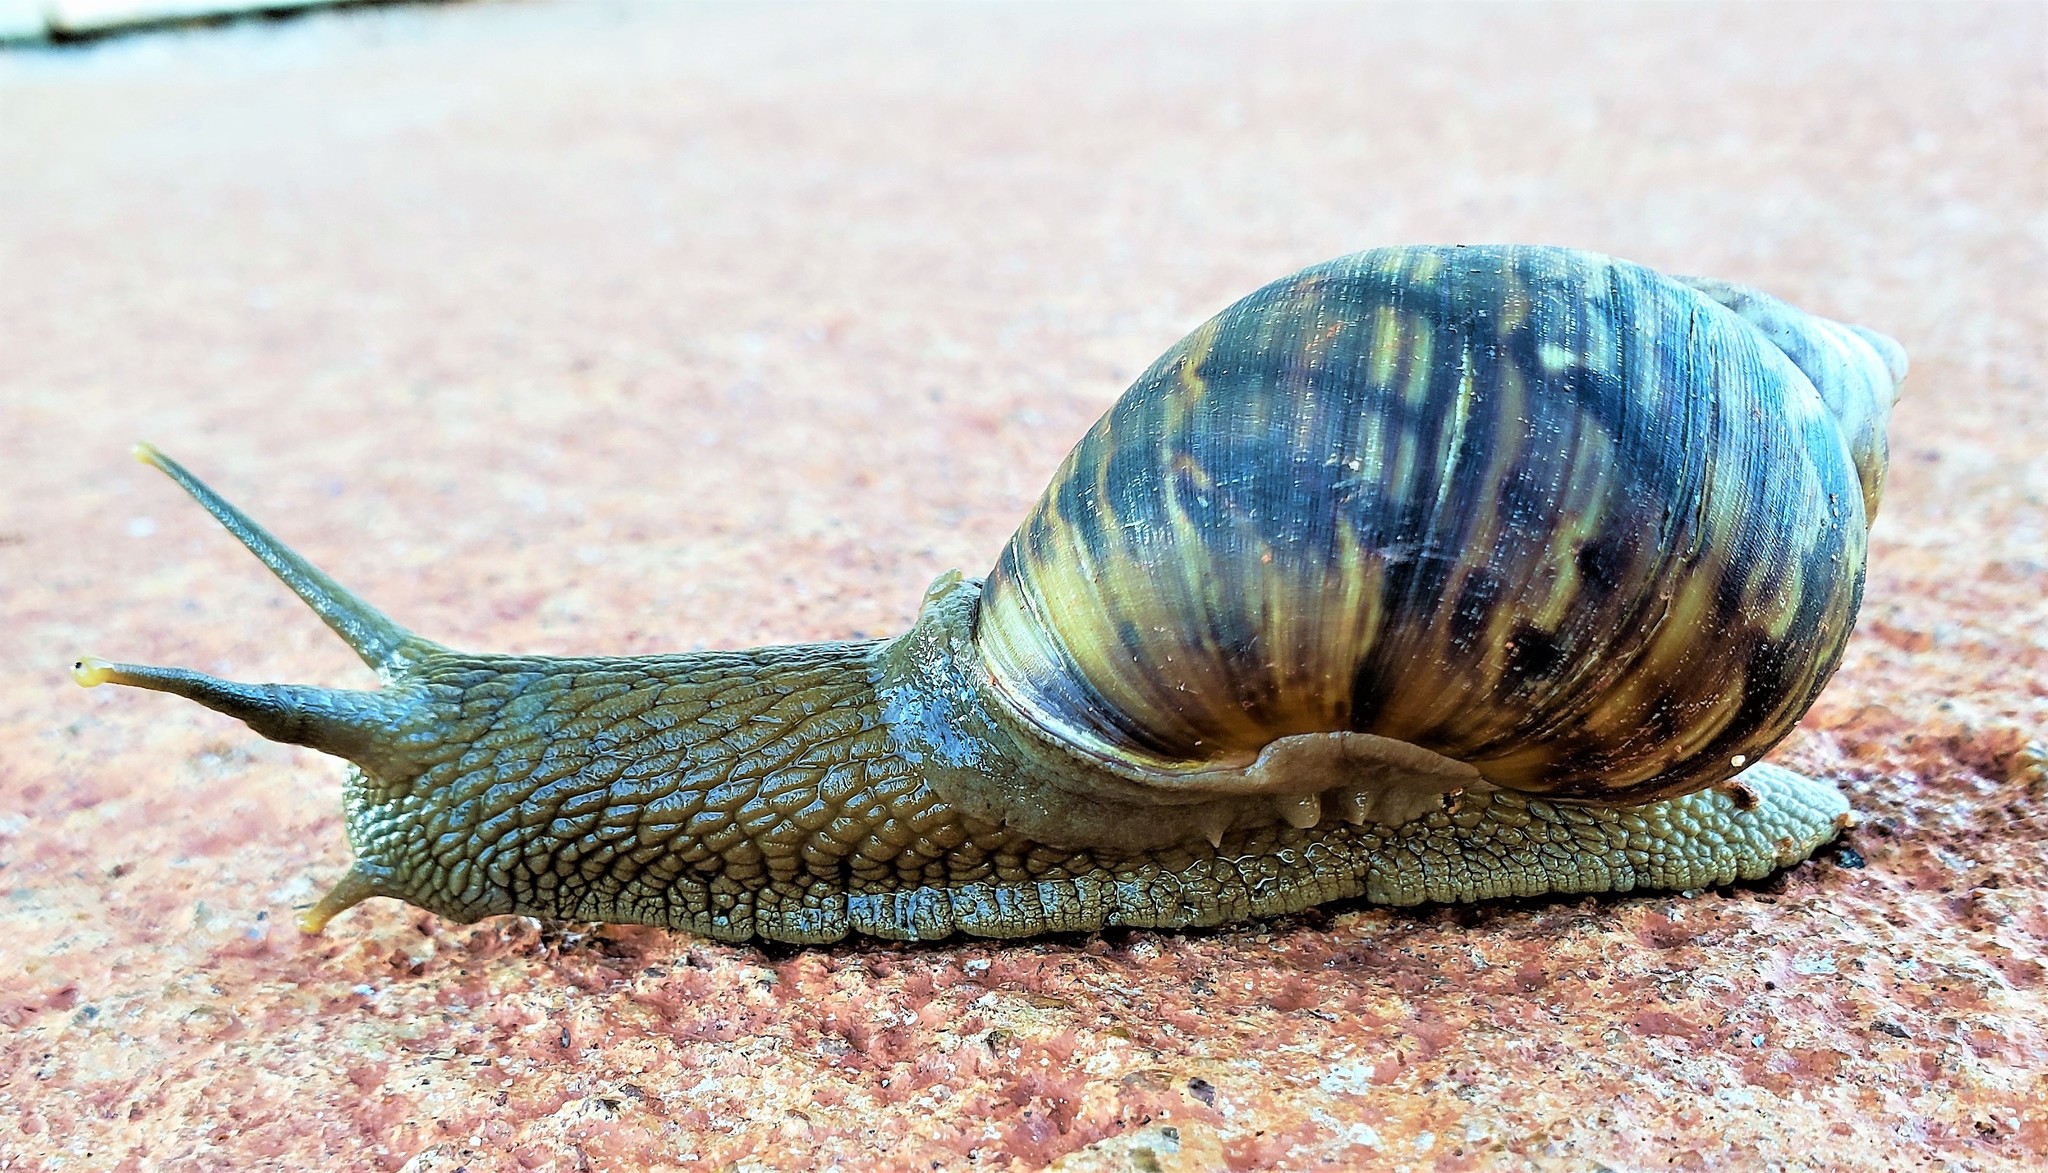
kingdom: Animalia
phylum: Mollusca
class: Gastropoda
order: Stylommatophora
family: Orthalicidae
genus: Sultana
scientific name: Sultana sultana
